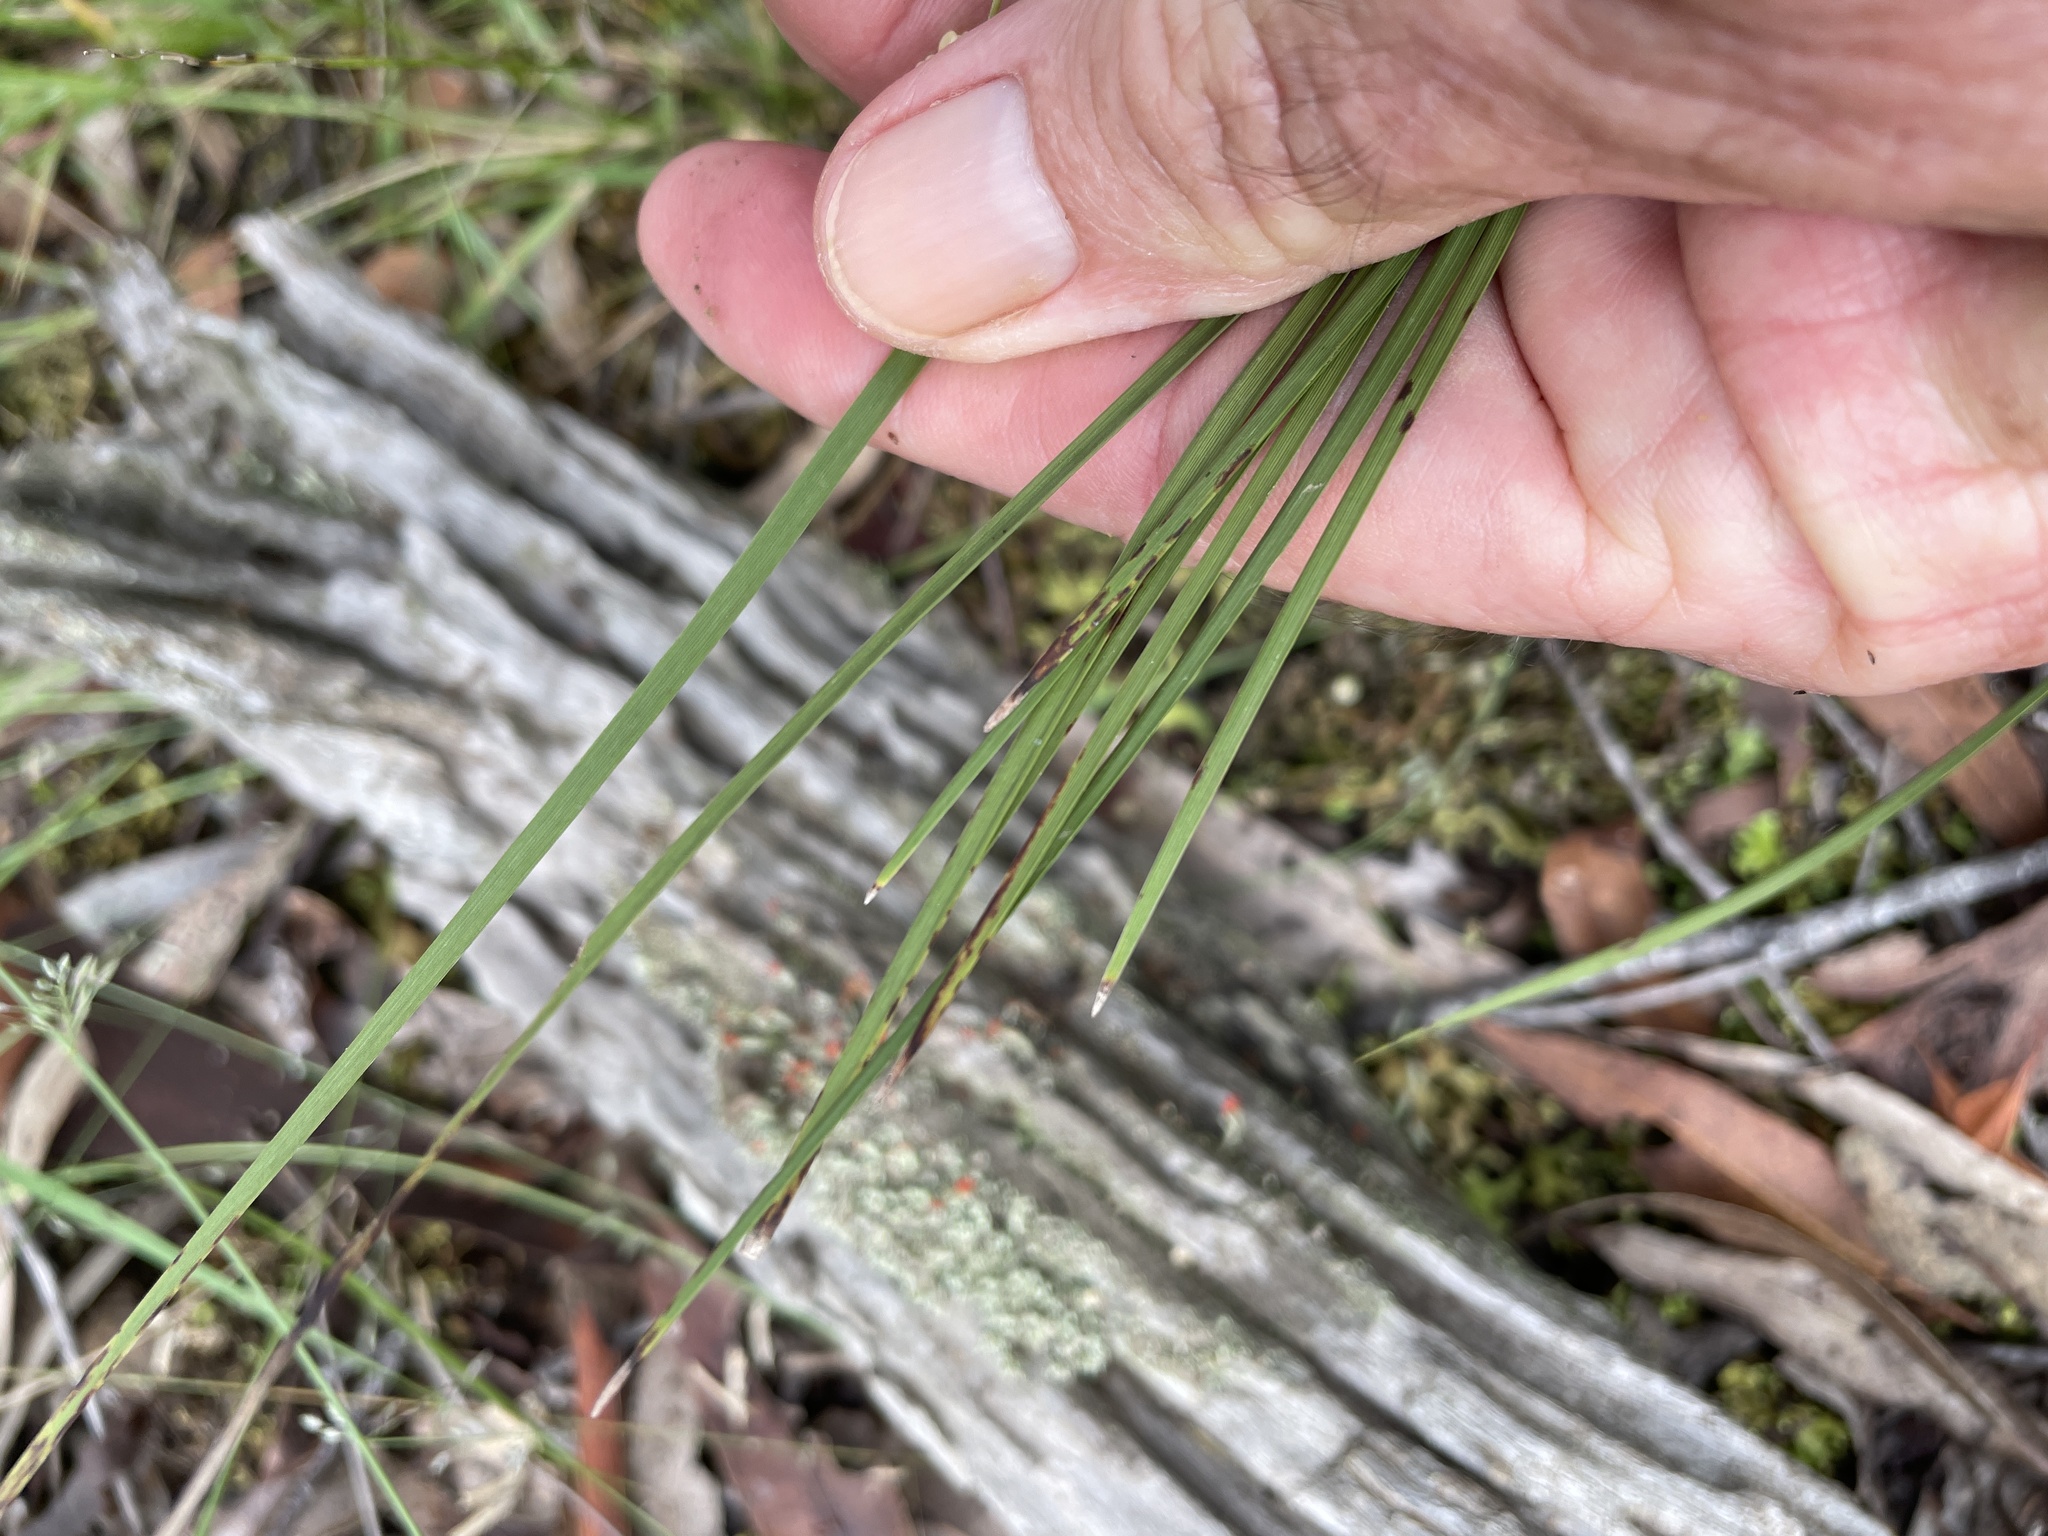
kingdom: Plantae
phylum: Tracheophyta
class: Liliopsida
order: Asparagales
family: Asparagaceae
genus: Lomandra
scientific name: Lomandra laxa
